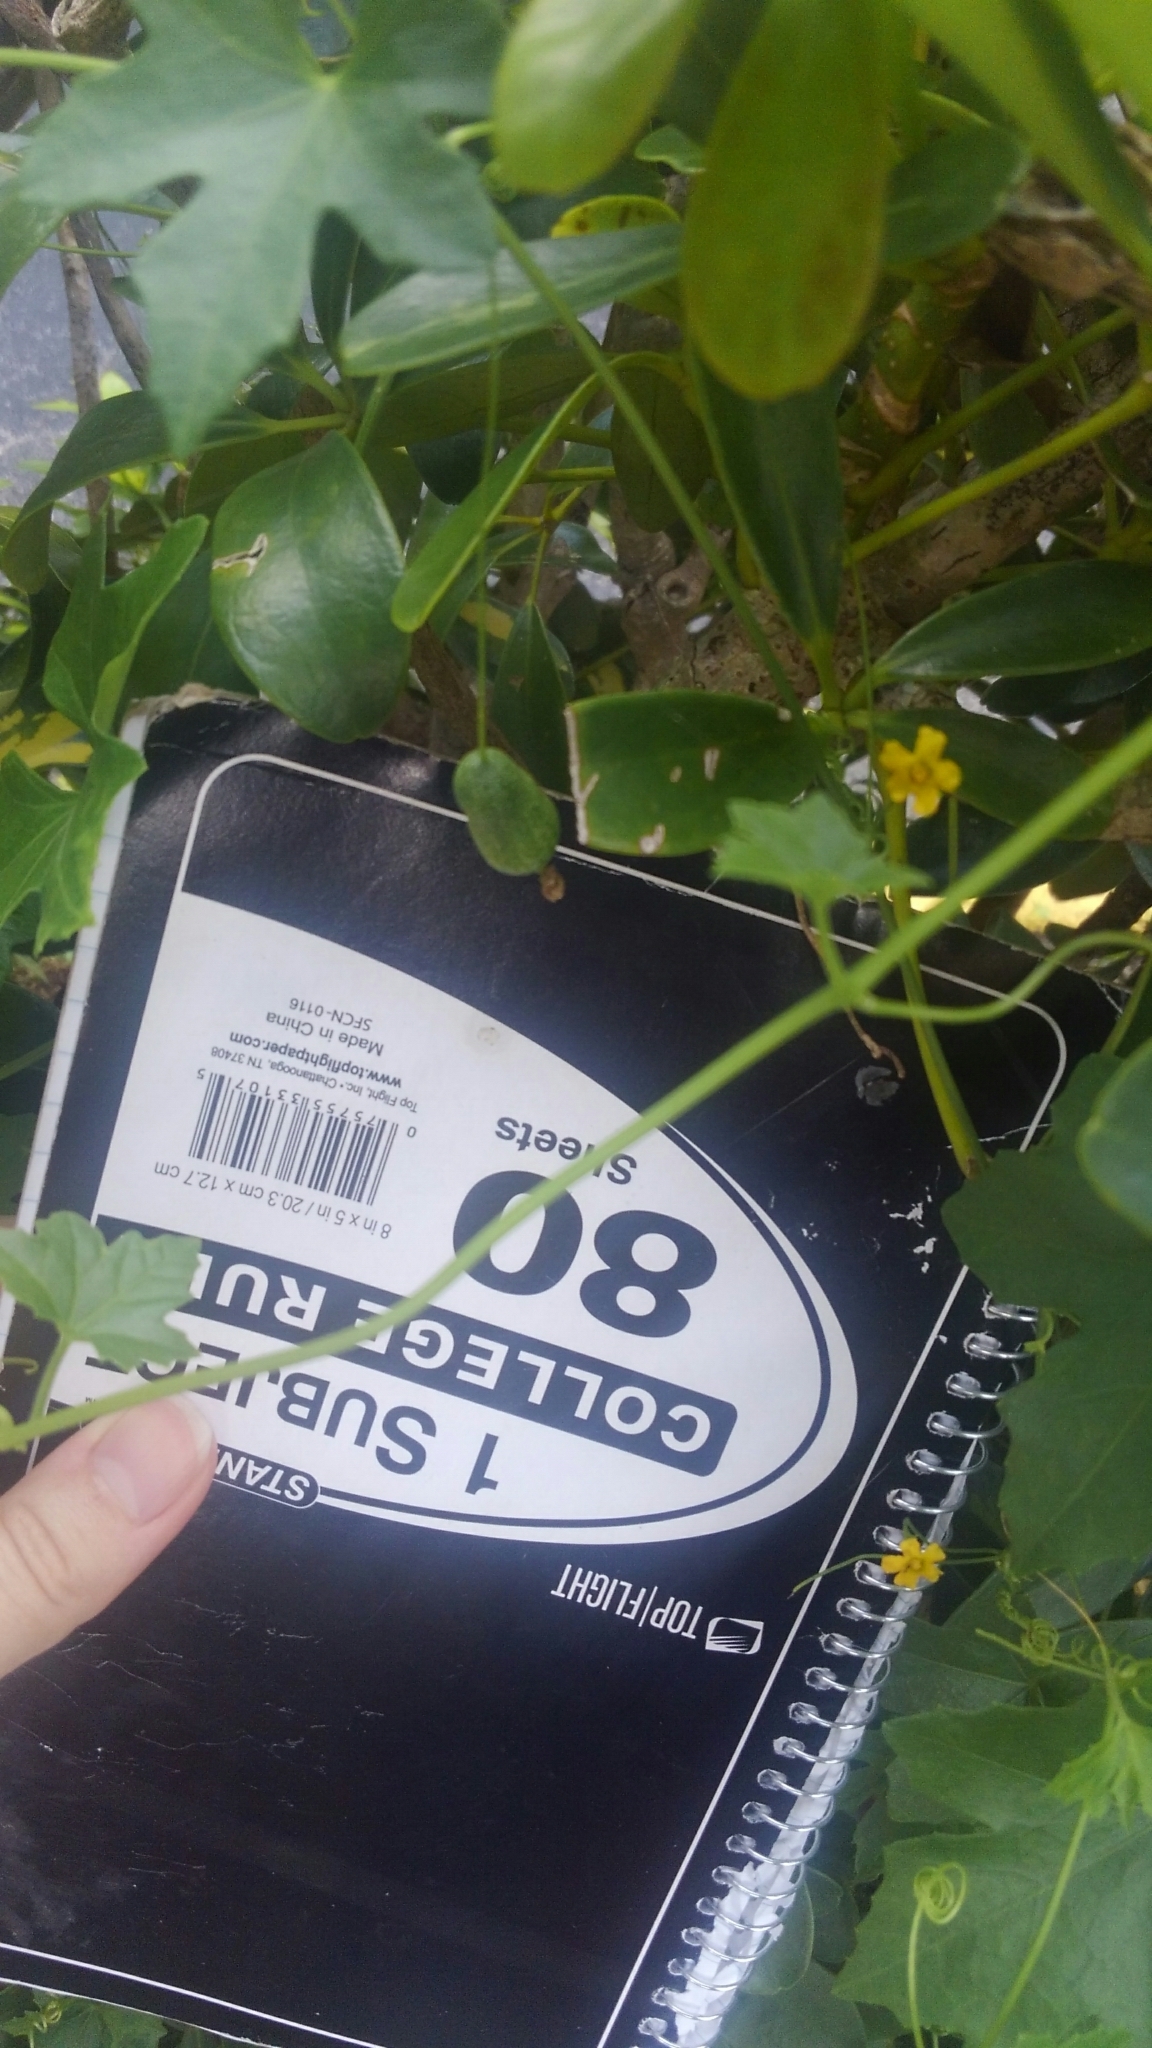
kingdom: Plantae
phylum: Tracheophyta
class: Magnoliopsida
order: Cucurbitales
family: Cucurbitaceae
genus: Melothria
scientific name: Melothria pendula
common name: Creeping-cucumber
